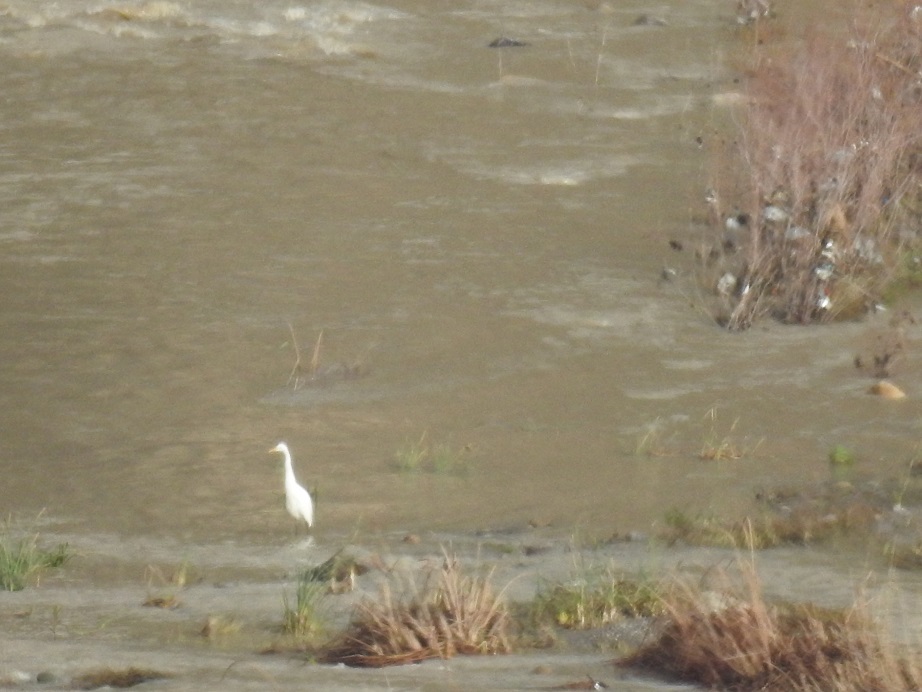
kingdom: Animalia
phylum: Chordata
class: Aves
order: Pelecaniformes
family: Ardeidae
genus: Ardea
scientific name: Ardea alba
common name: Great egret
